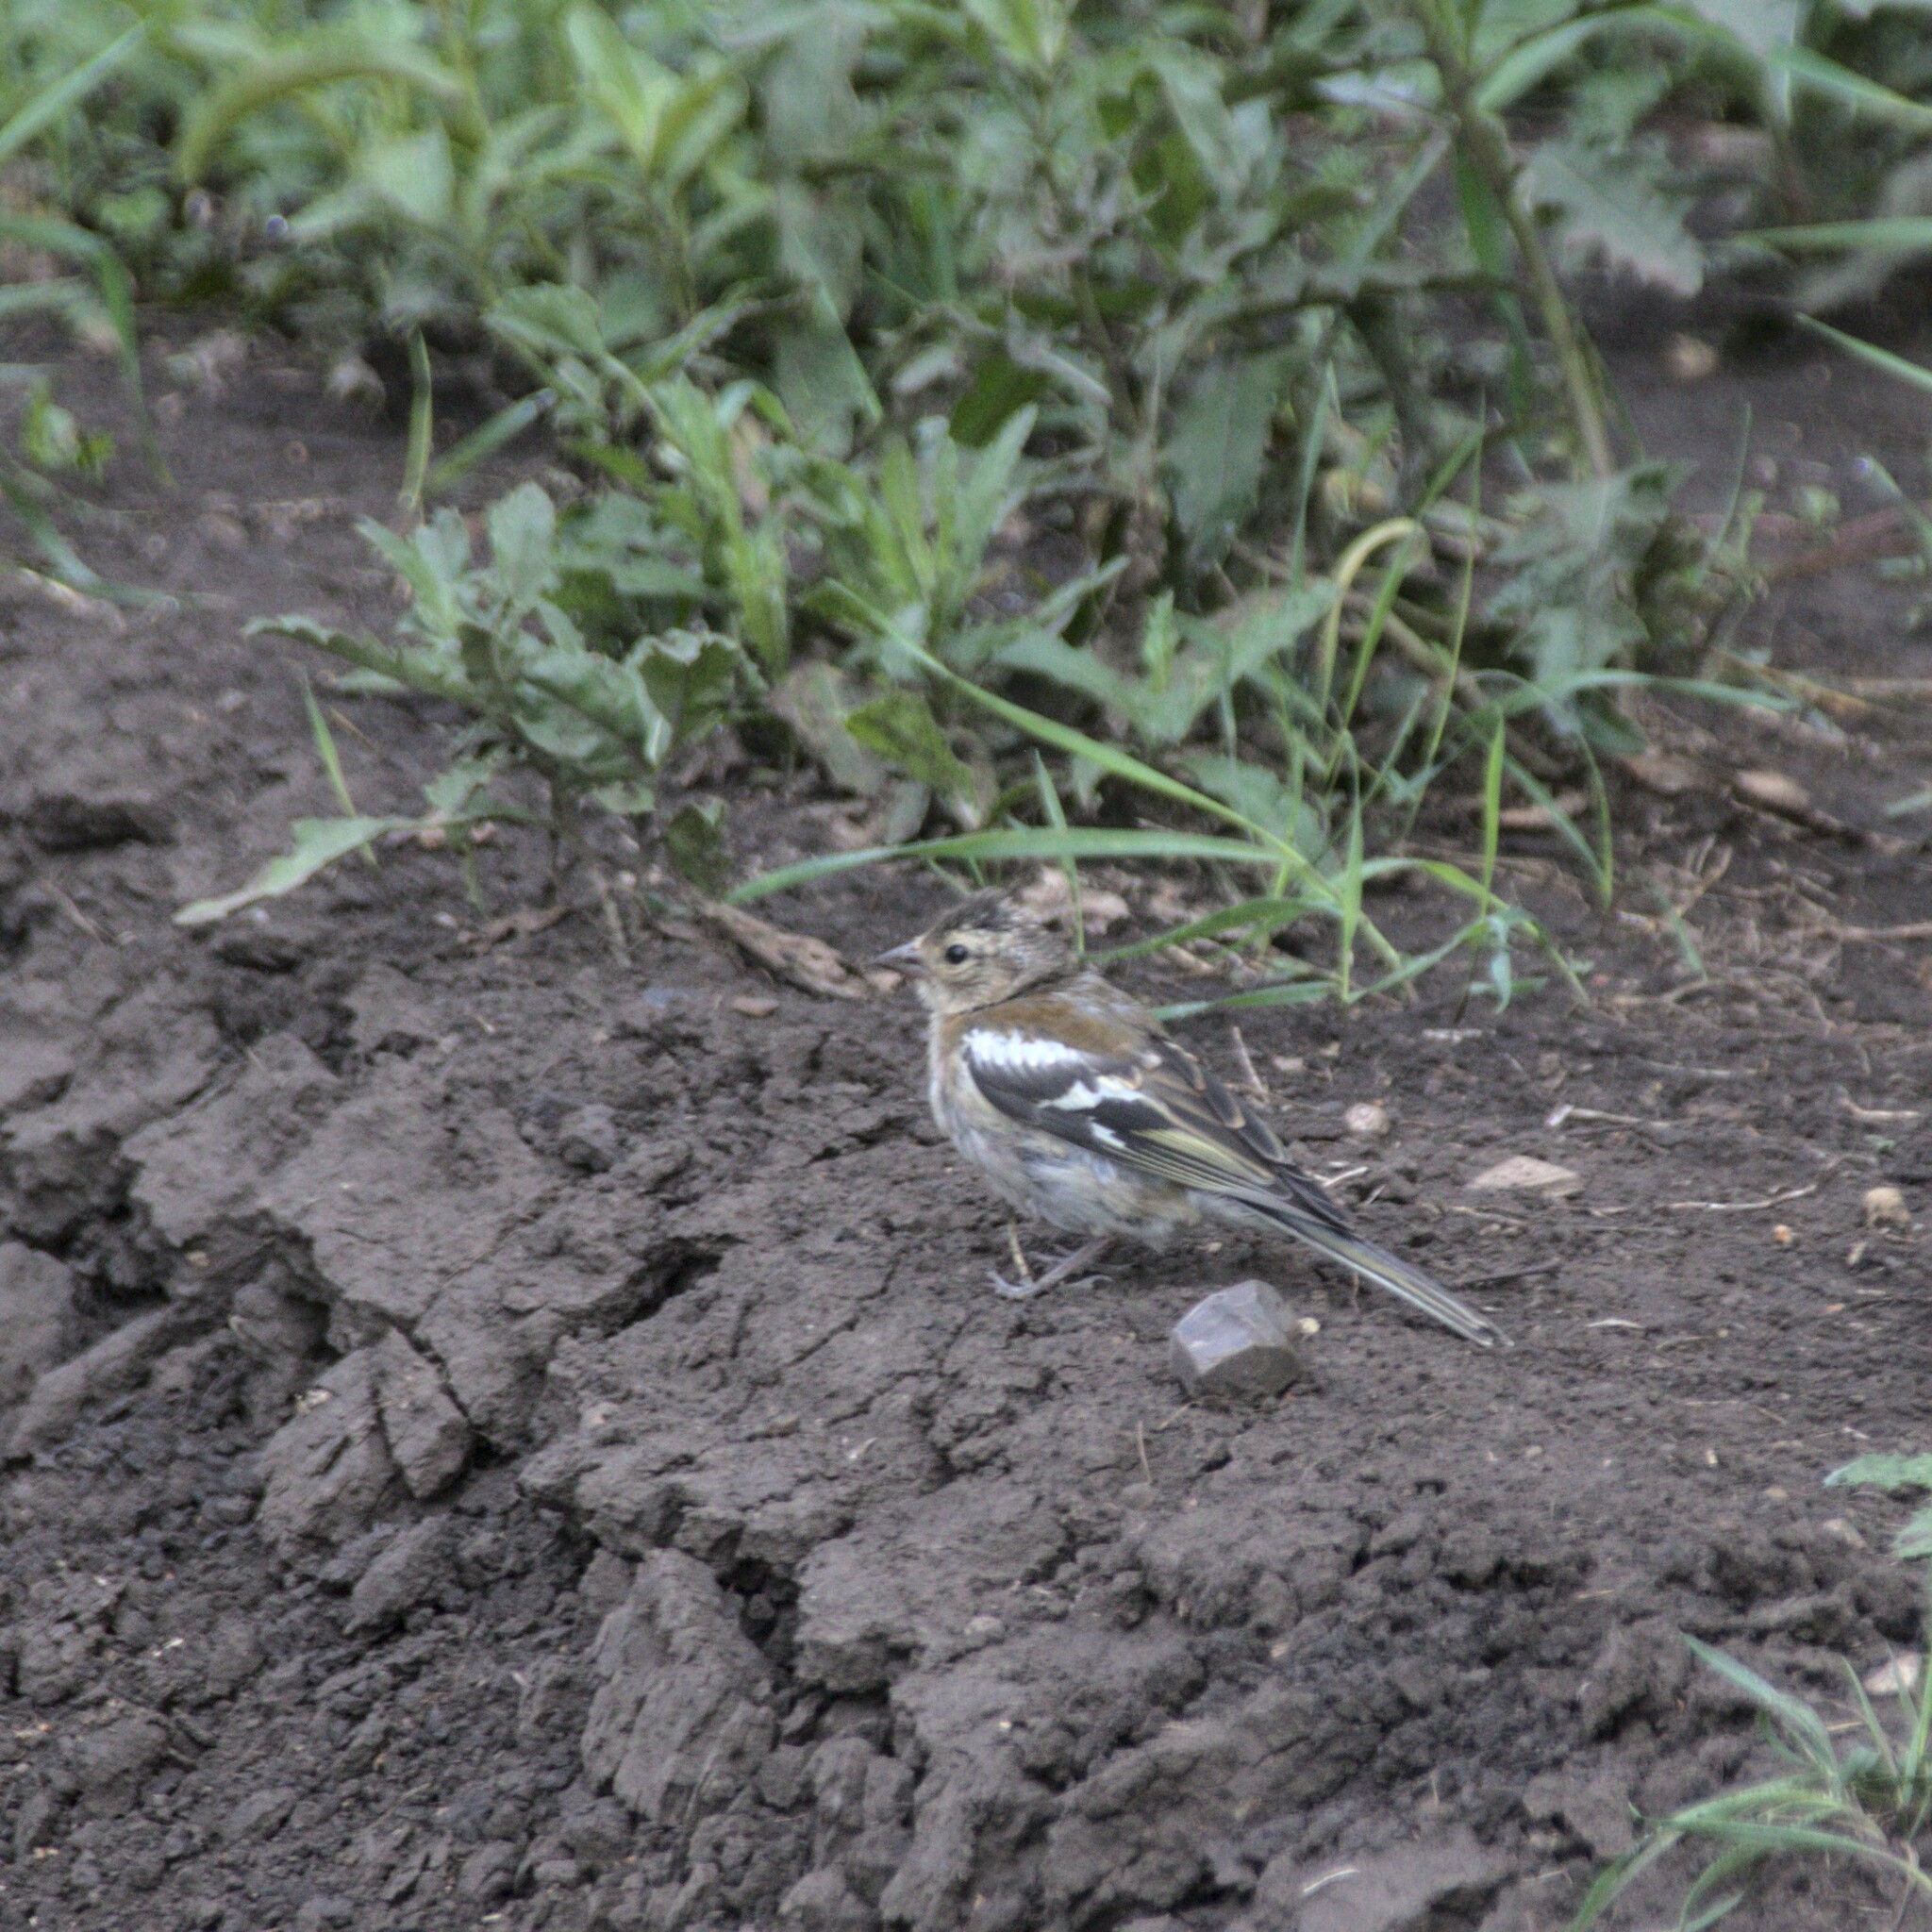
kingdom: Animalia
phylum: Chordata
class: Aves
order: Passeriformes
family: Fringillidae
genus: Fringilla
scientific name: Fringilla coelebs
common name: Common chaffinch
